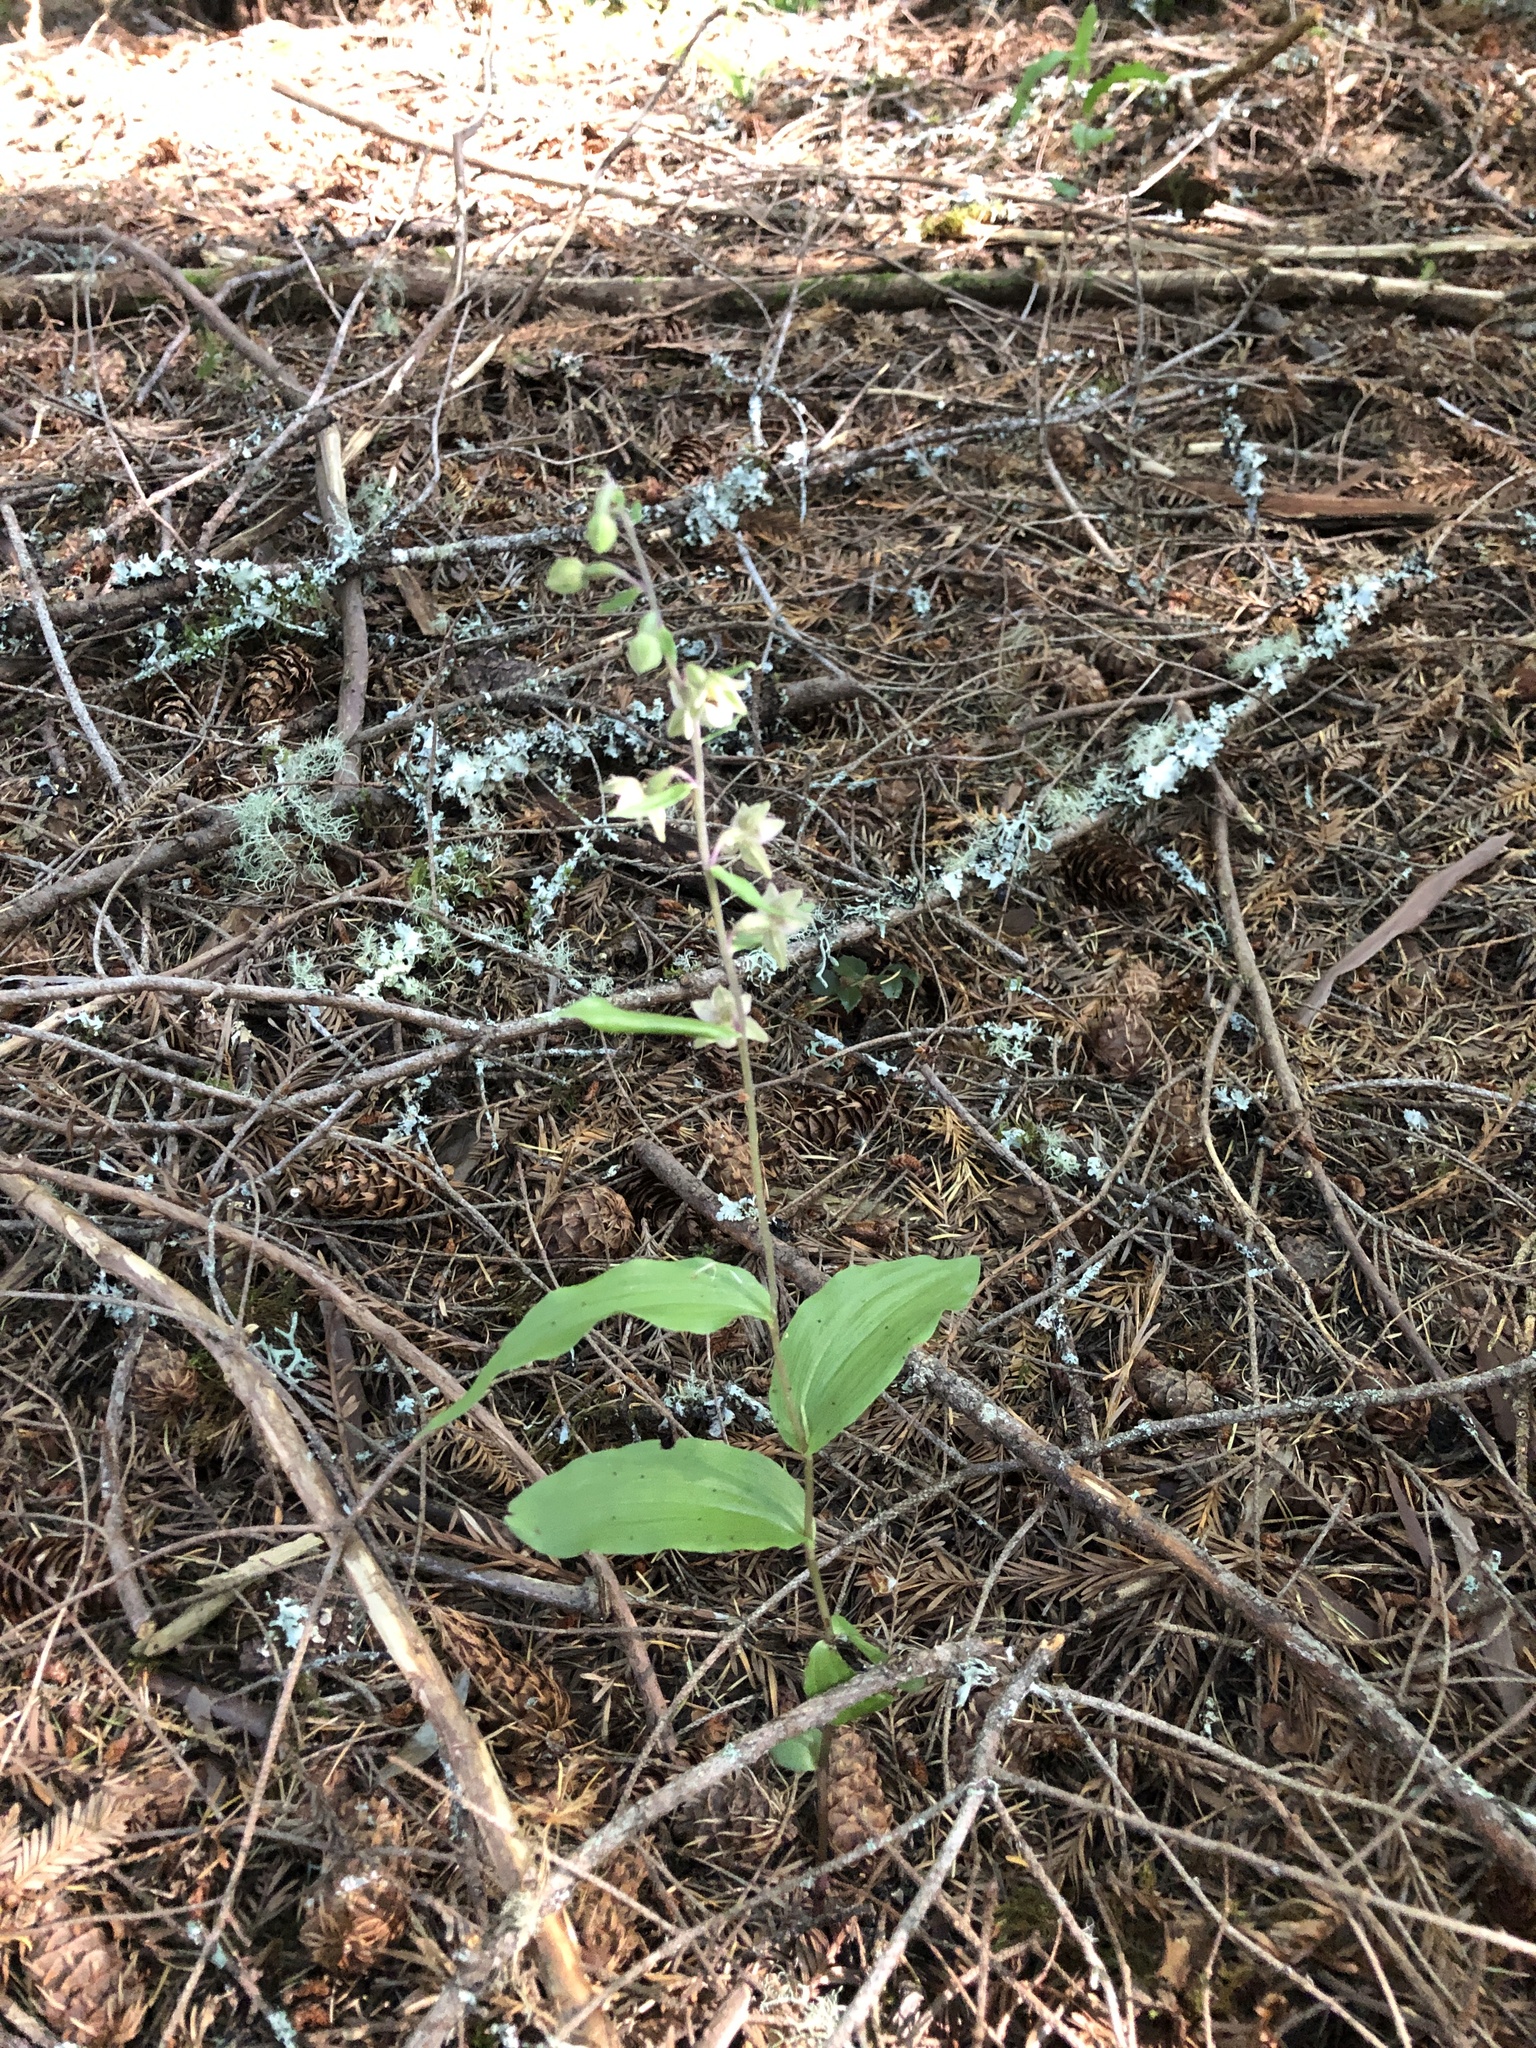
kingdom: Plantae
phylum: Tracheophyta
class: Liliopsida
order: Asparagales
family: Orchidaceae
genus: Epipactis
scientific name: Epipactis helleborine
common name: Broad-leaved helleborine
